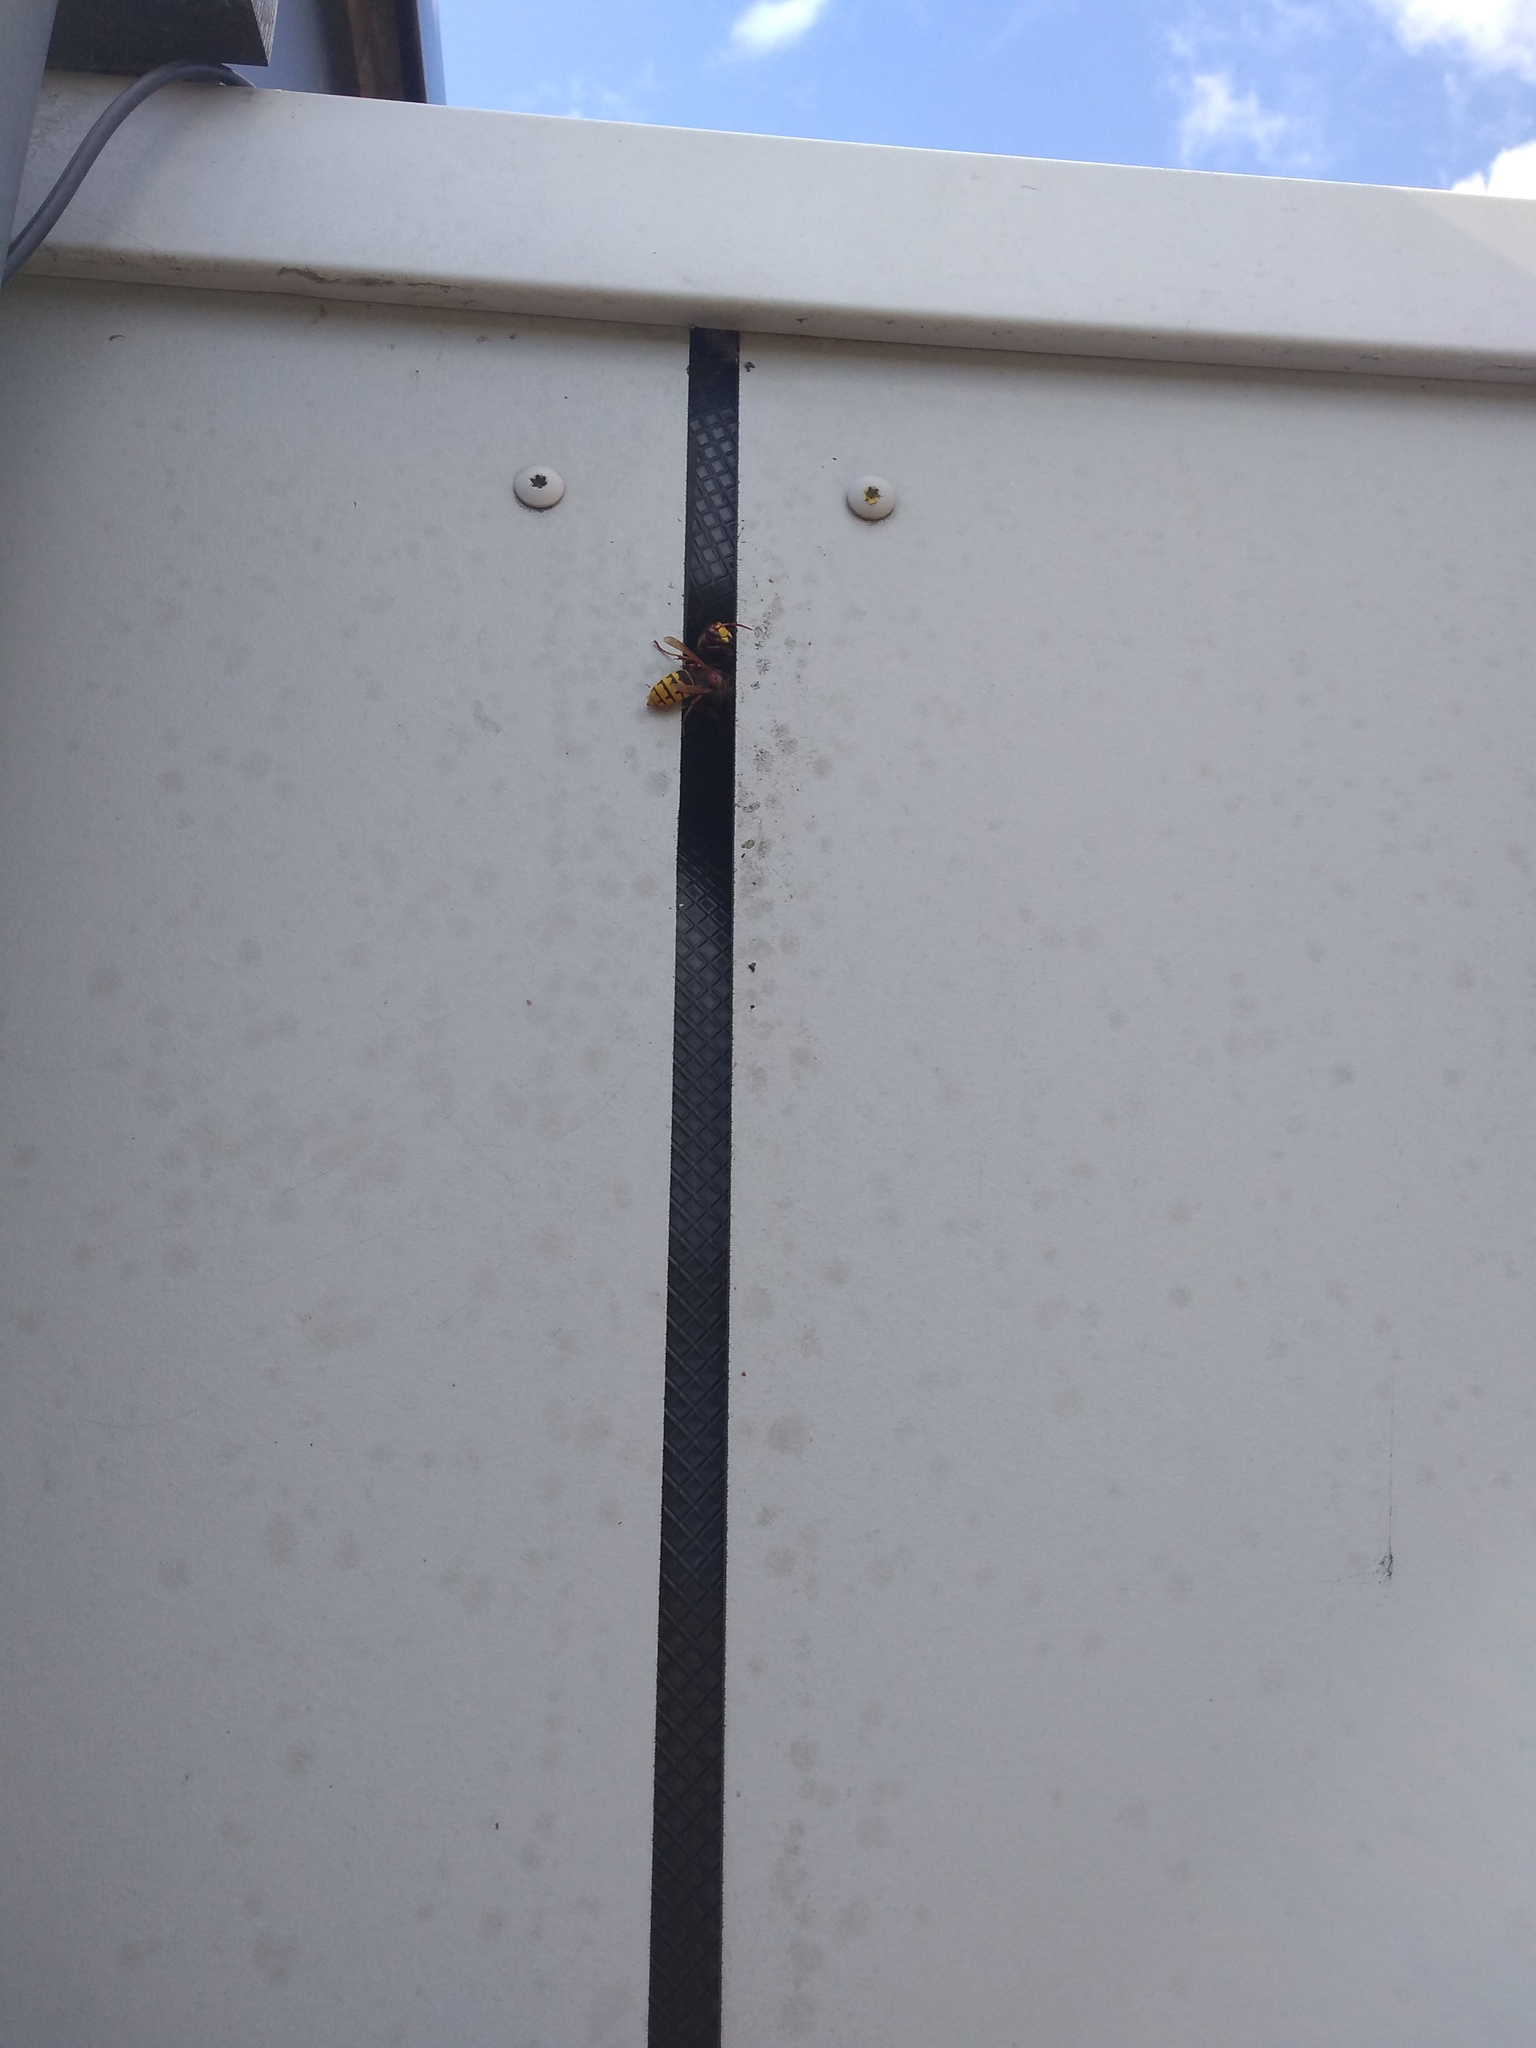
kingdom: Animalia
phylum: Arthropoda
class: Insecta
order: Hymenoptera
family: Vespidae
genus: Vespa
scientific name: Vespa crabro
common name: Hornet
